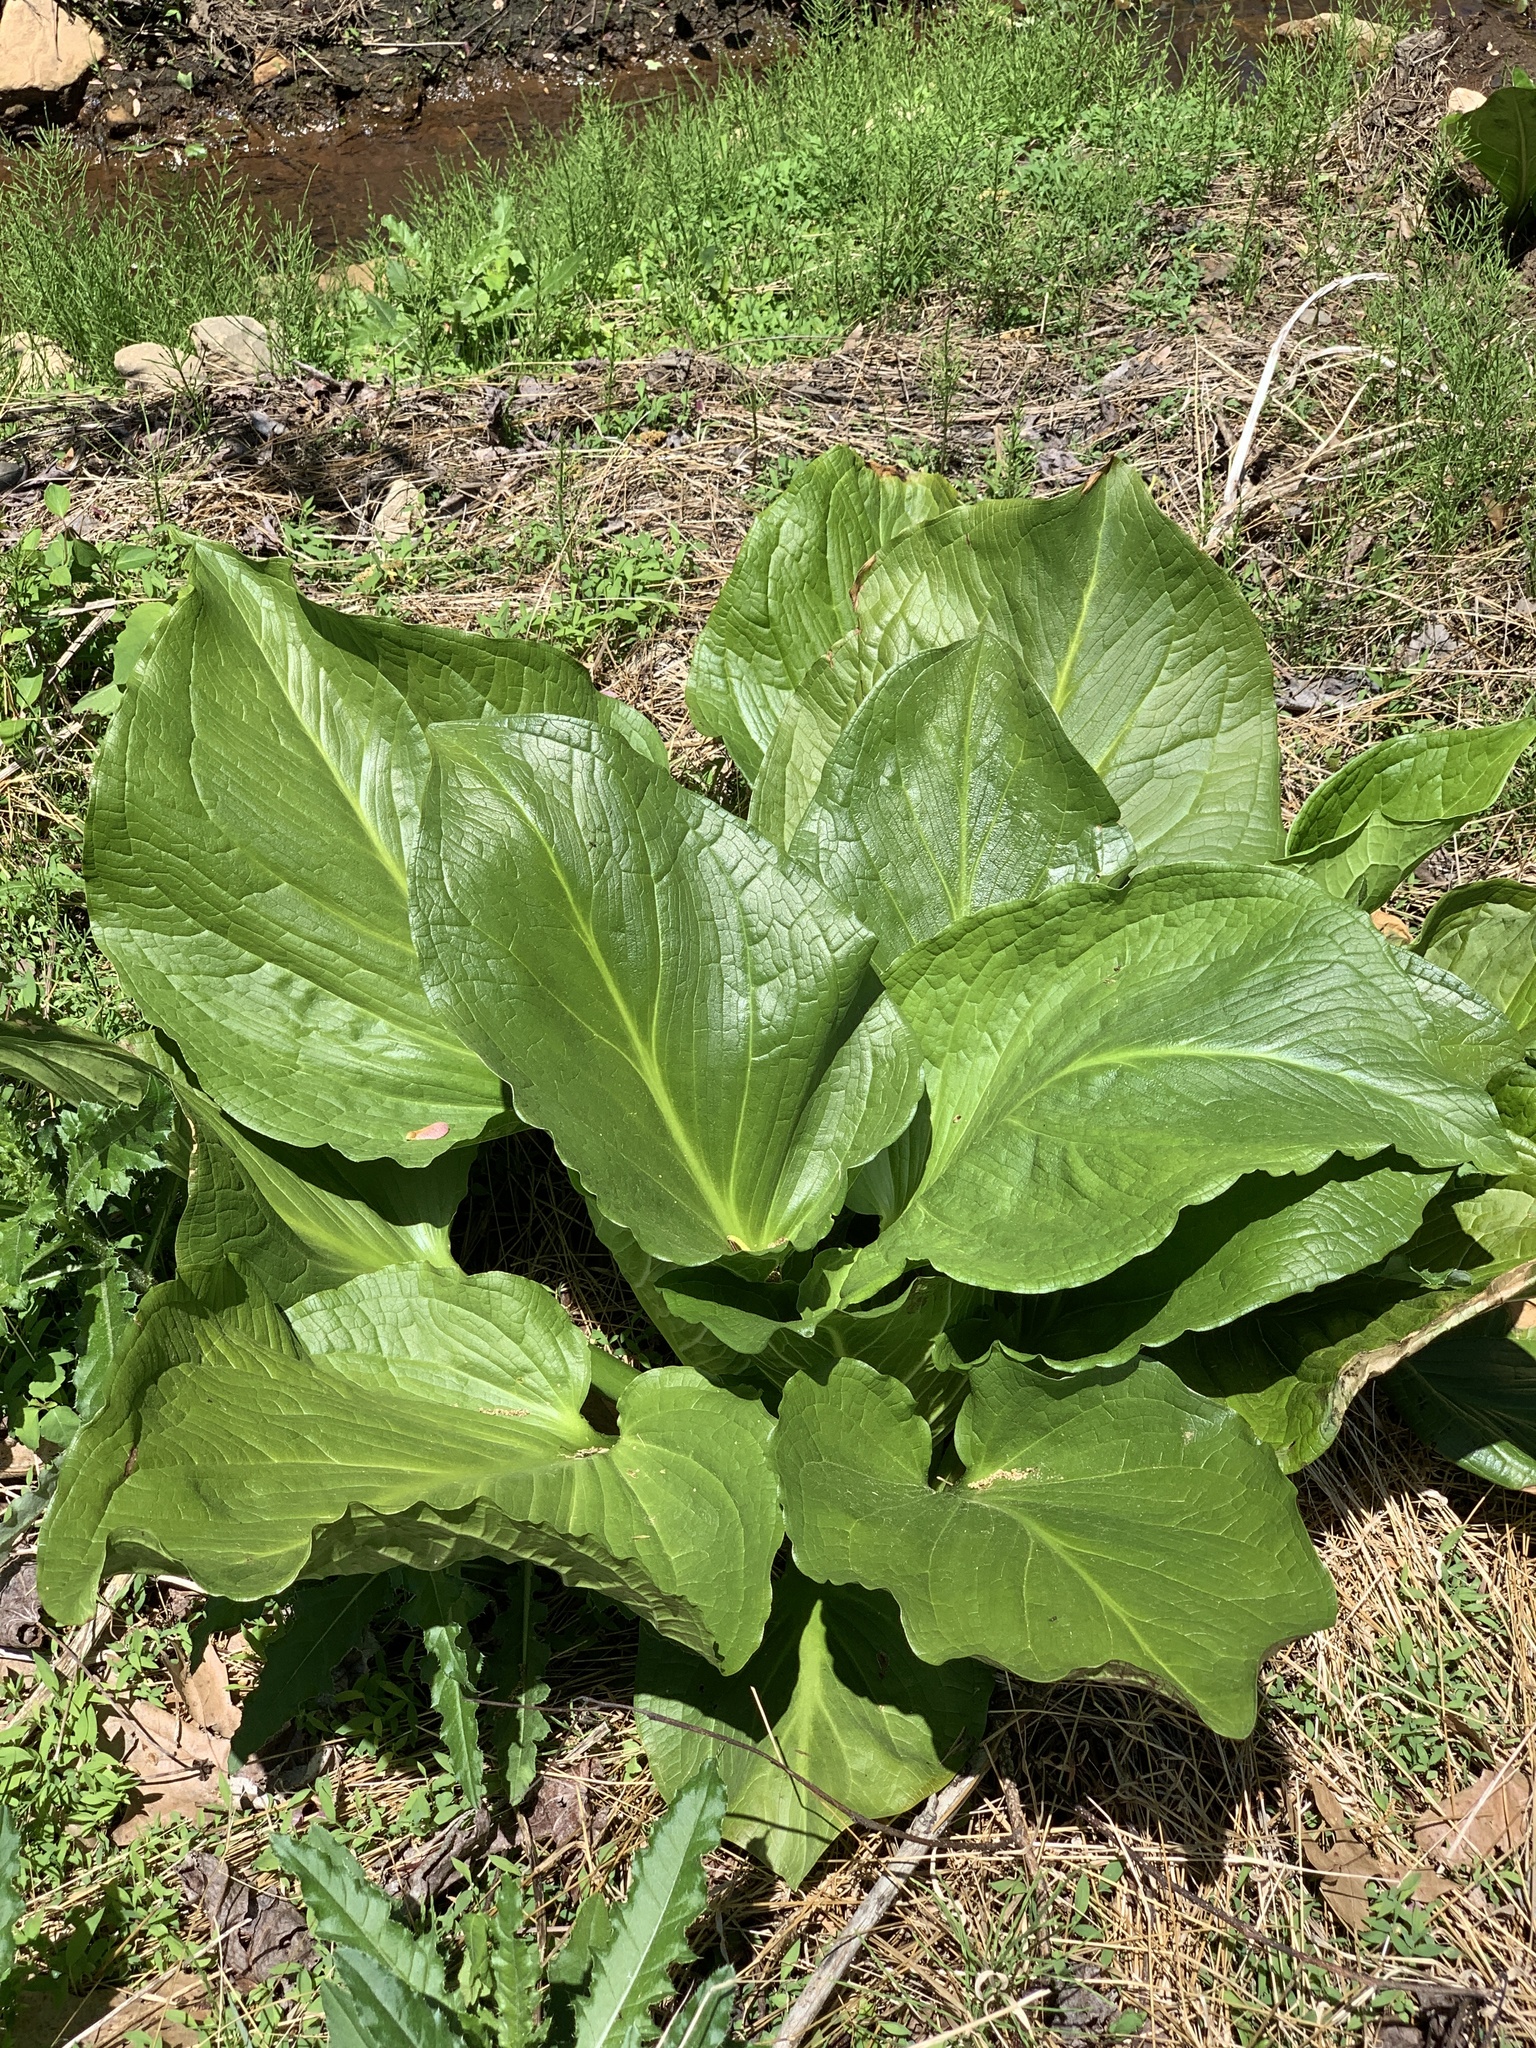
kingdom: Plantae
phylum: Tracheophyta
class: Liliopsida
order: Alismatales
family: Araceae
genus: Symplocarpus
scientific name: Symplocarpus foetidus
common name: Eastern skunk cabbage
